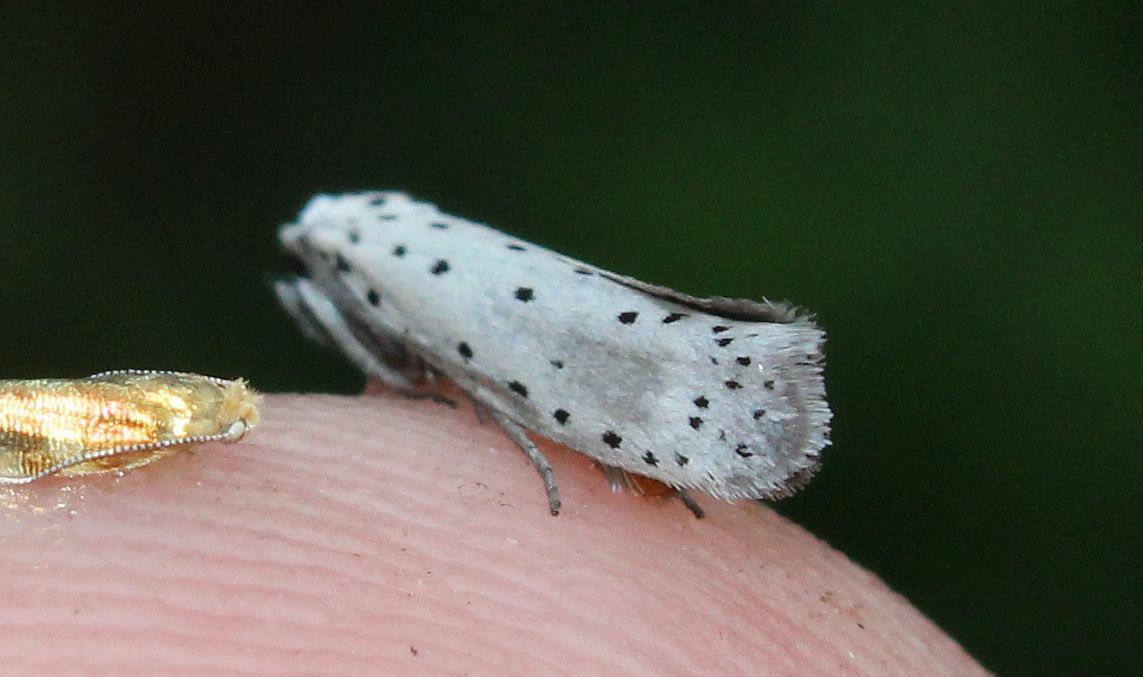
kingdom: Animalia
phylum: Arthropoda
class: Insecta
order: Lepidoptera
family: Yponomeutidae
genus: Yponomeuta
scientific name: Yponomeuta
